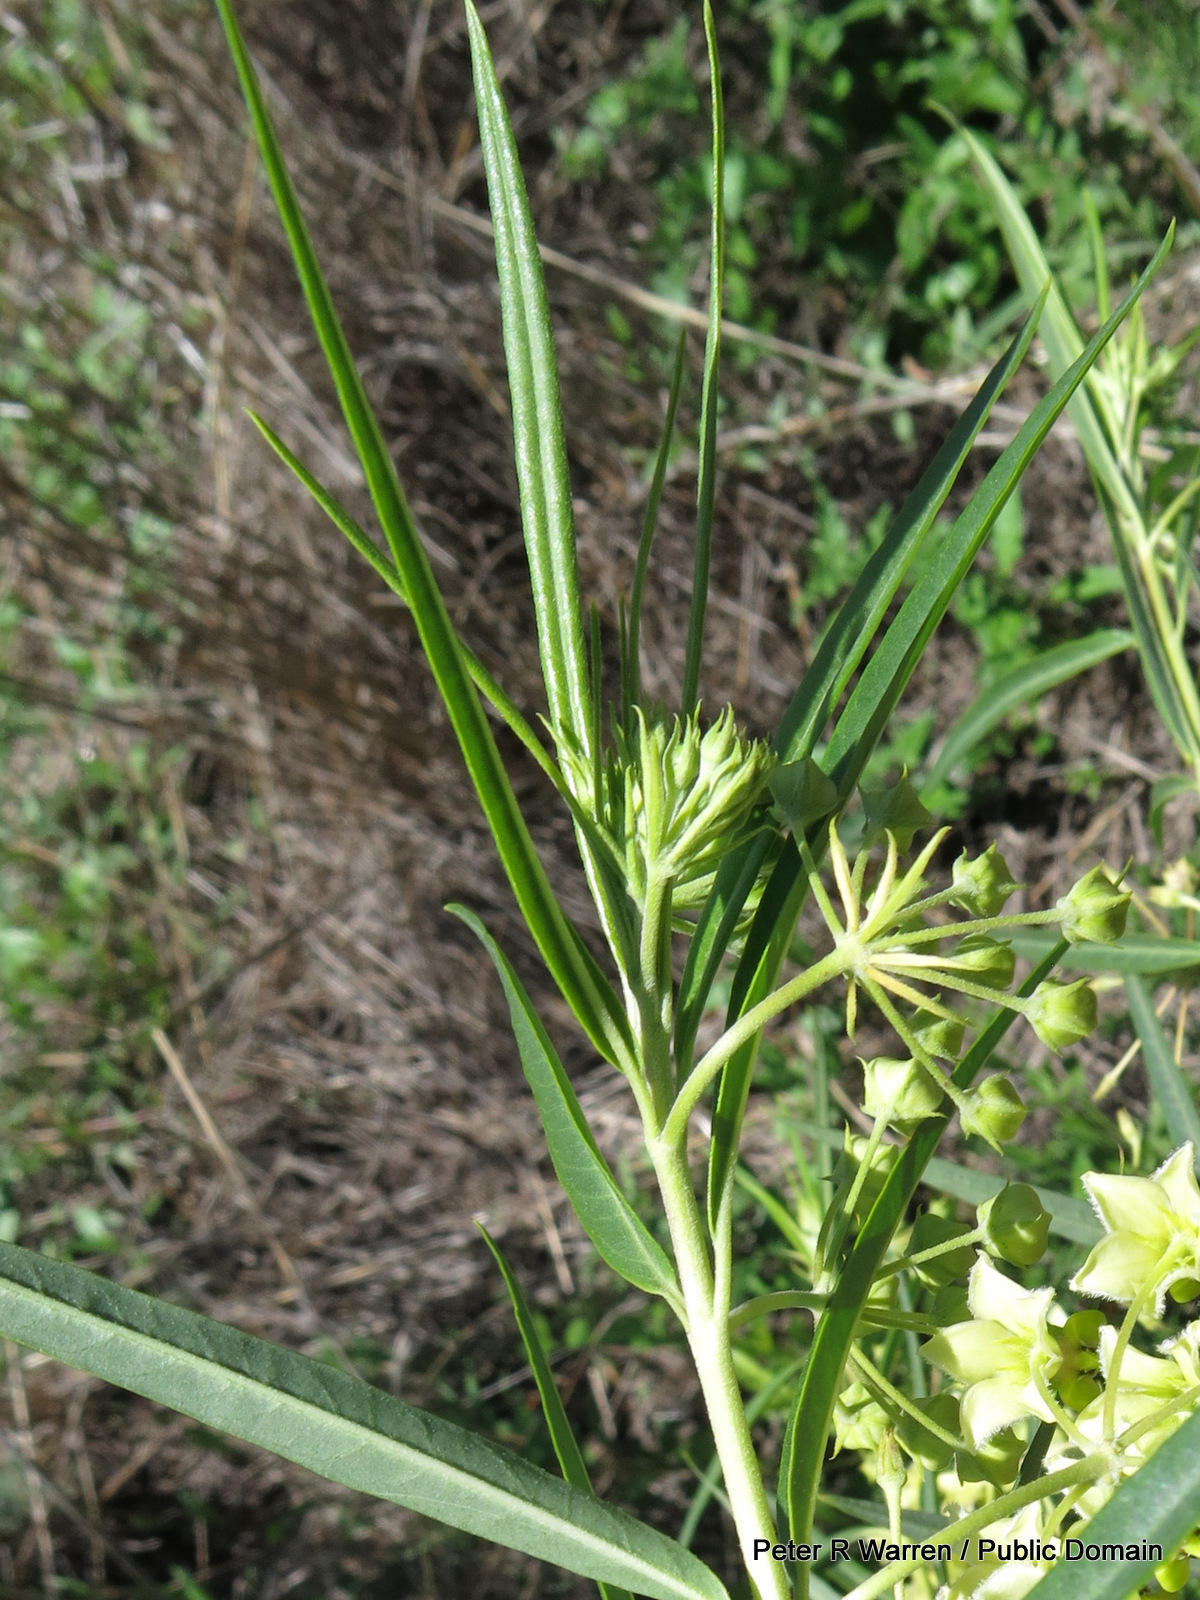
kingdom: Plantae
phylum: Tracheophyta
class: Magnoliopsida
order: Gentianales
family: Apocynaceae
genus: Gomphocarpus
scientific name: Gomphocarpus fruticosus
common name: Milkweed
